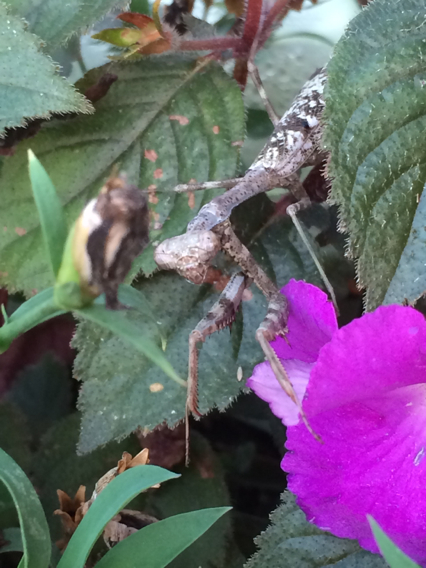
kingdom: Animalia
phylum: Arthropoda
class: Insecta
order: Mantodea
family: Mantidae
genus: Stagmomantis
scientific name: Stagmomantis carolina
